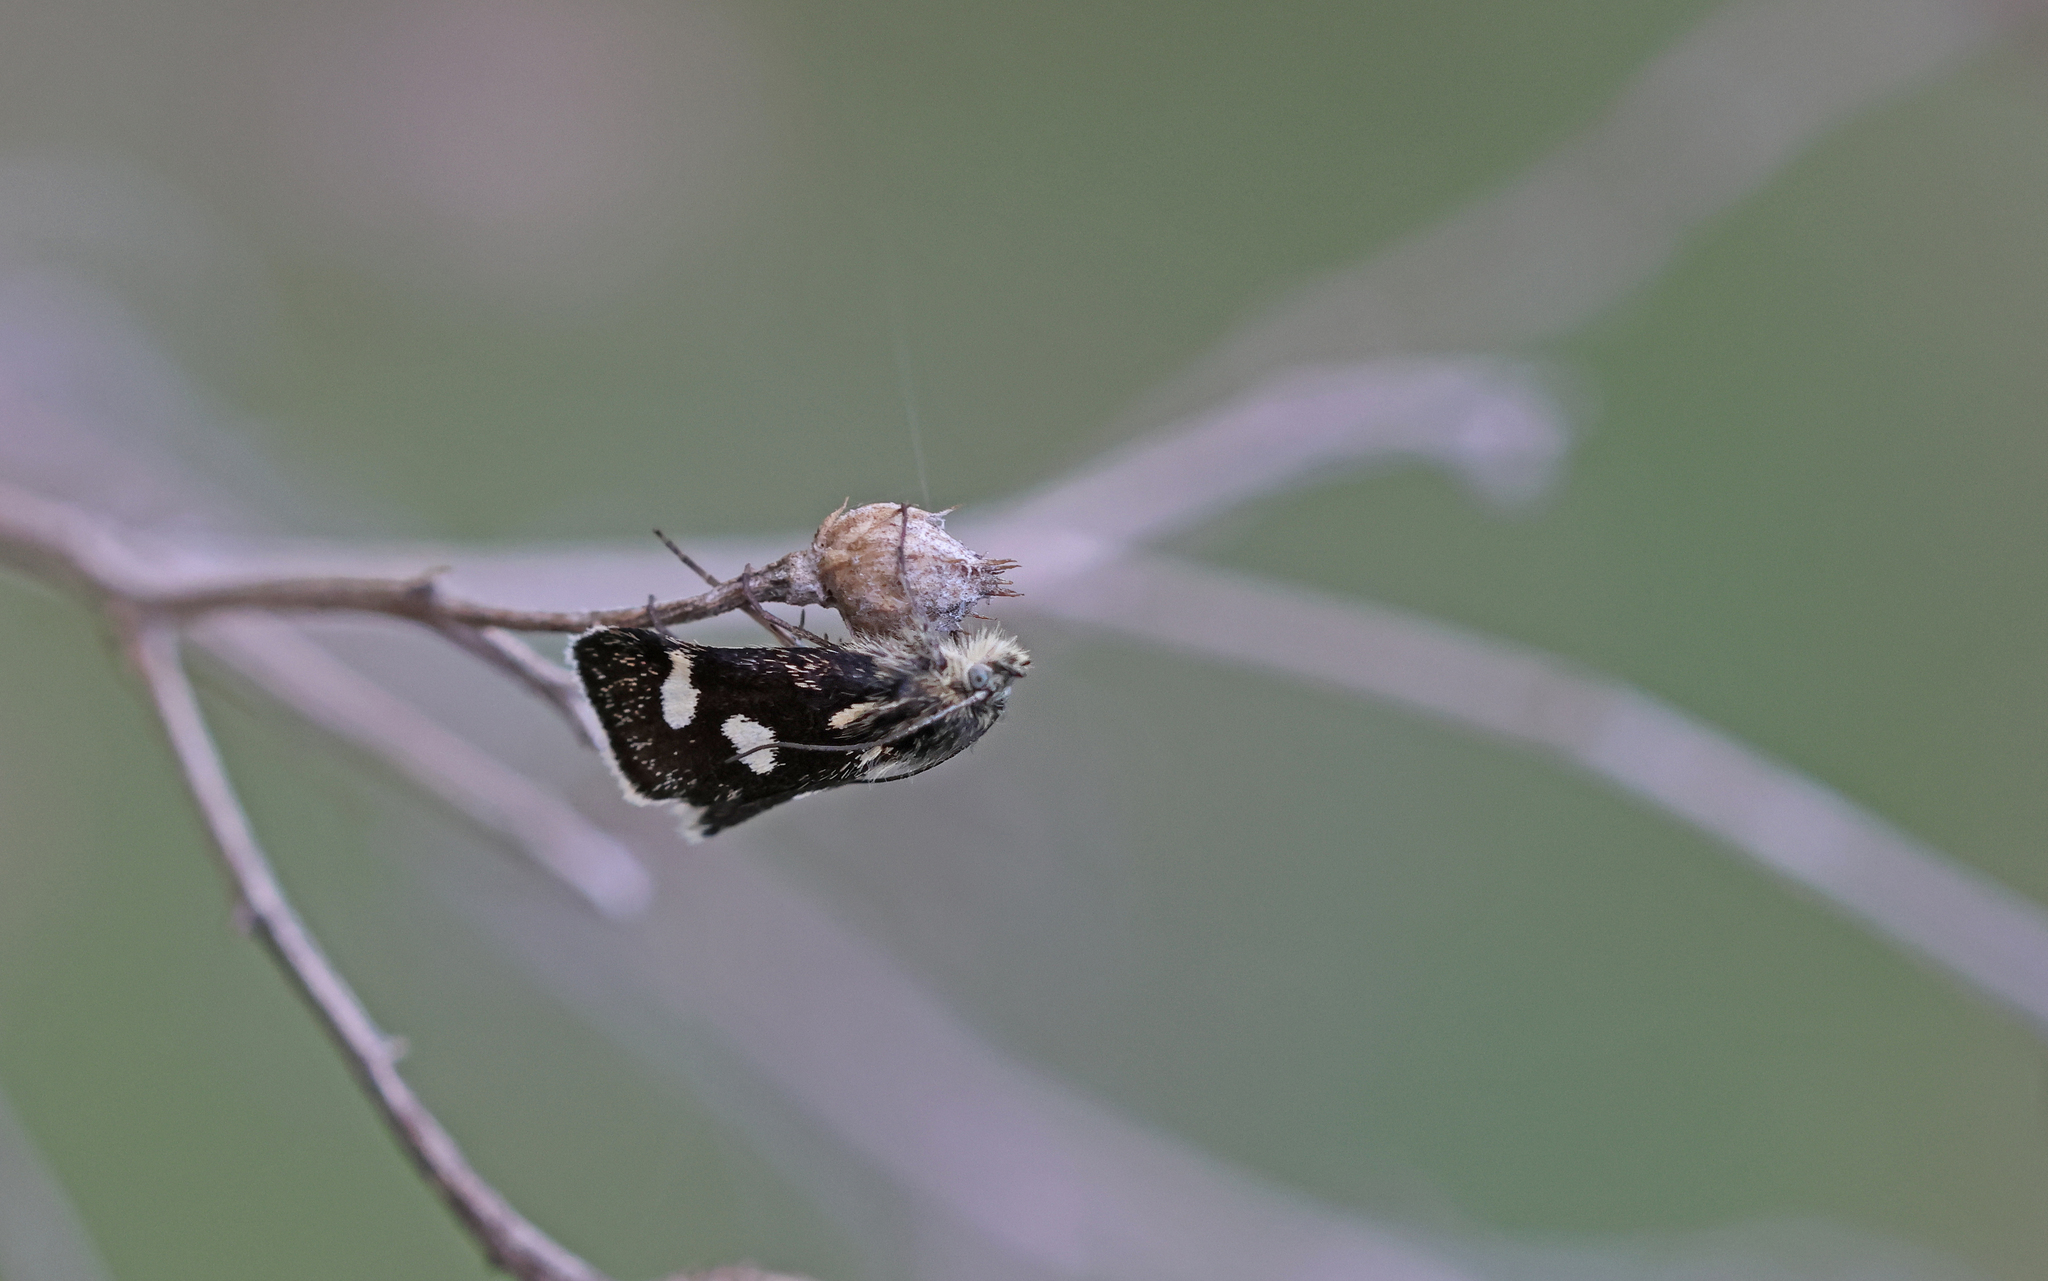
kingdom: Animalia
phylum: Arthropoda
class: Insecta
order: Lepidoptera
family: Crambidae
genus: Eurrhypis
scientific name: Eurrhypis pollinalis
